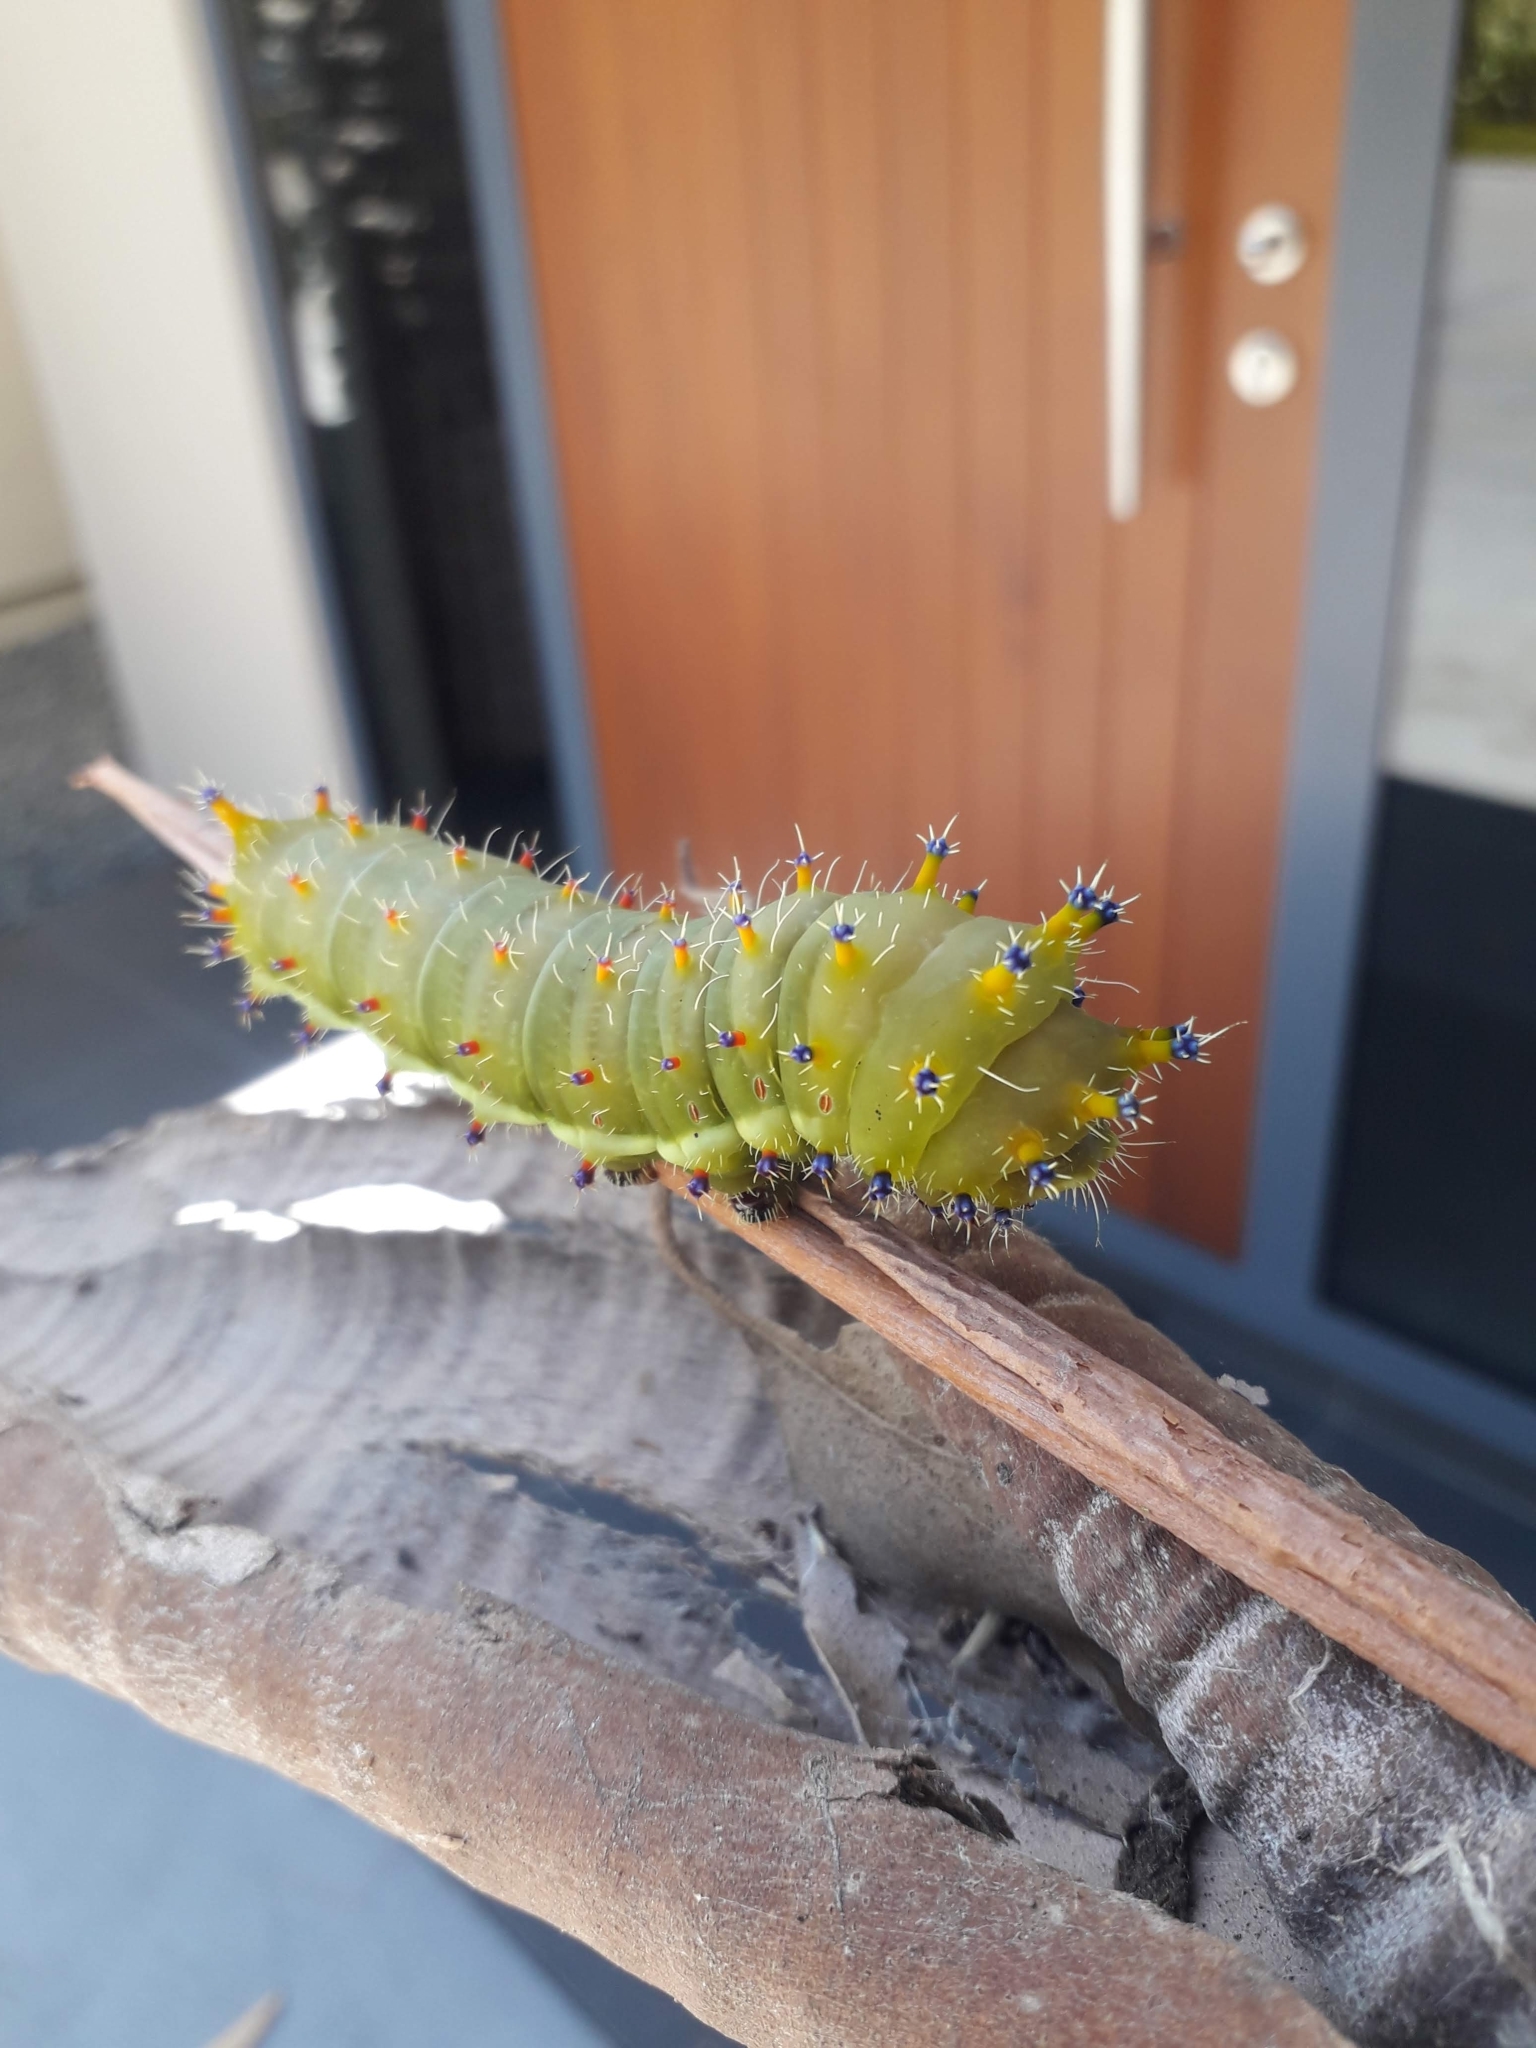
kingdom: Animalia
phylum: Arthropoda
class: Insecta
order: Lepidoptera
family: Saturniidae
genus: Opodiphthera
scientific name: Opodiphthera
